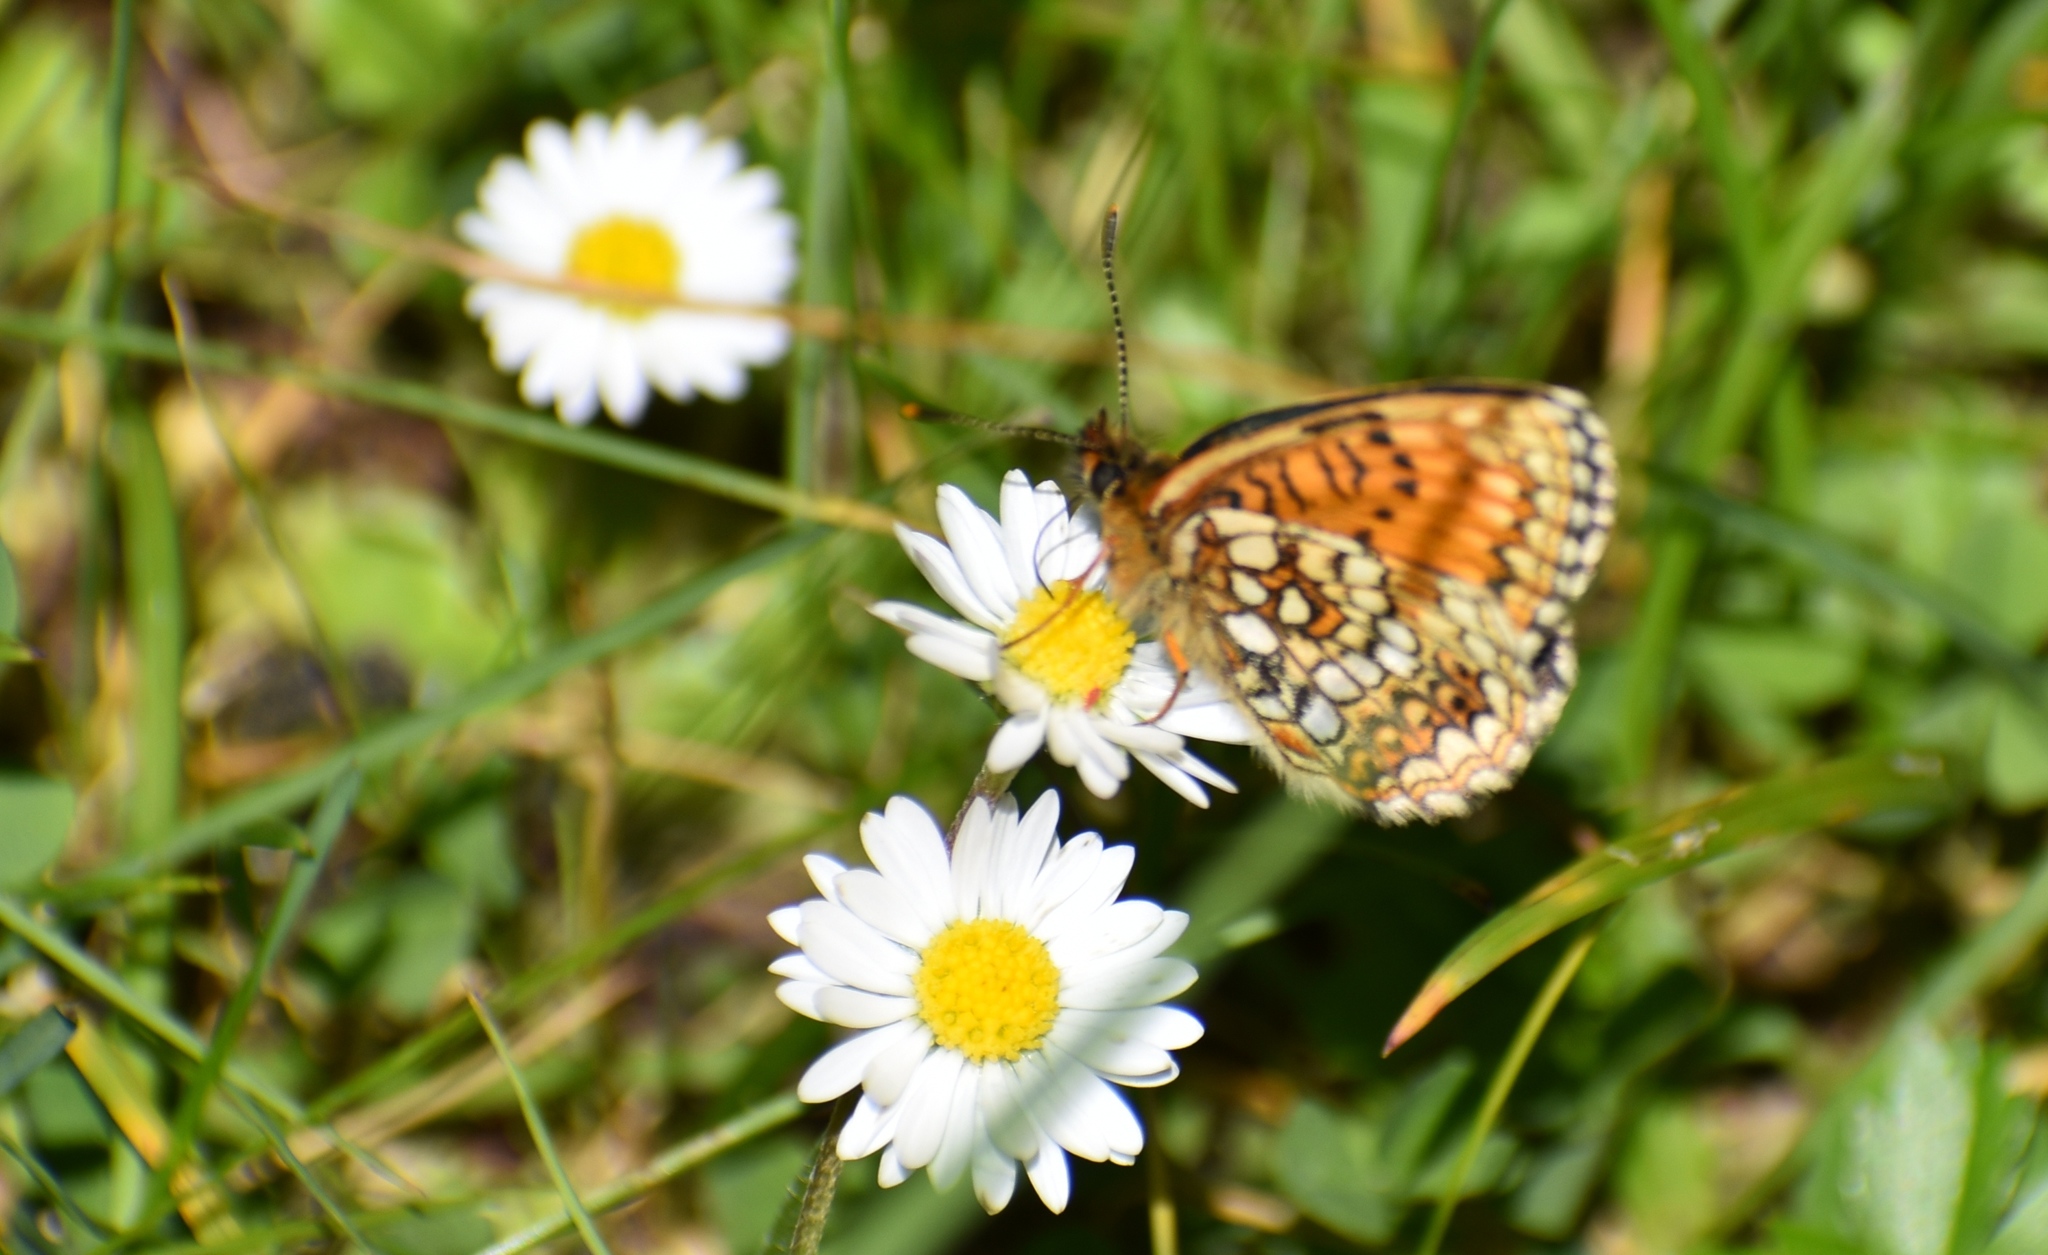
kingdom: Animalia
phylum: Arthropoda
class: Insecta
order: Lepidoptera
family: Nymphalidae
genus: Melitaea
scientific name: Melitaea diamina
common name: False heath fritillary
